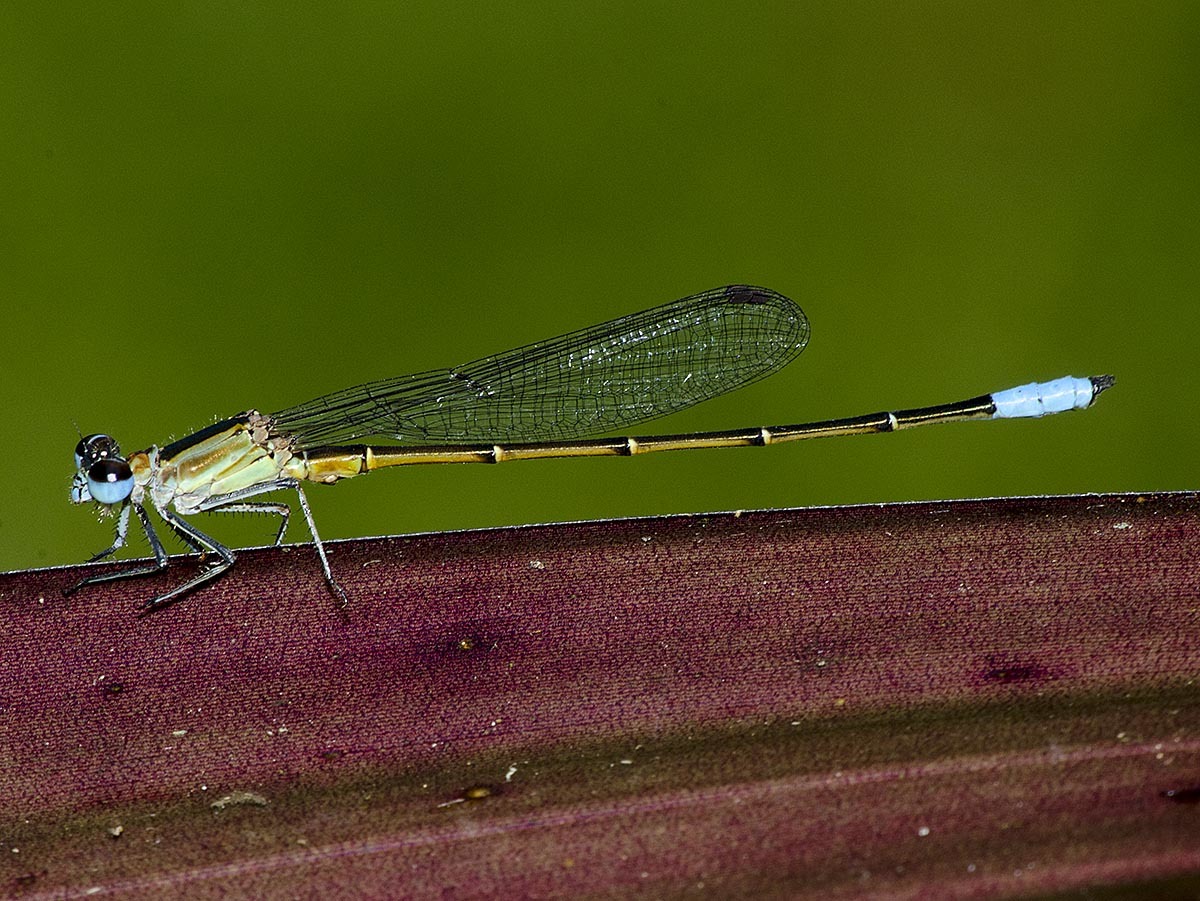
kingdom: Animalia
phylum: Arthropoda
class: Insecta
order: Odonata
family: Coenagrionidae
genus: Fredyagrion
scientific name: Fredyagrion capixabae
